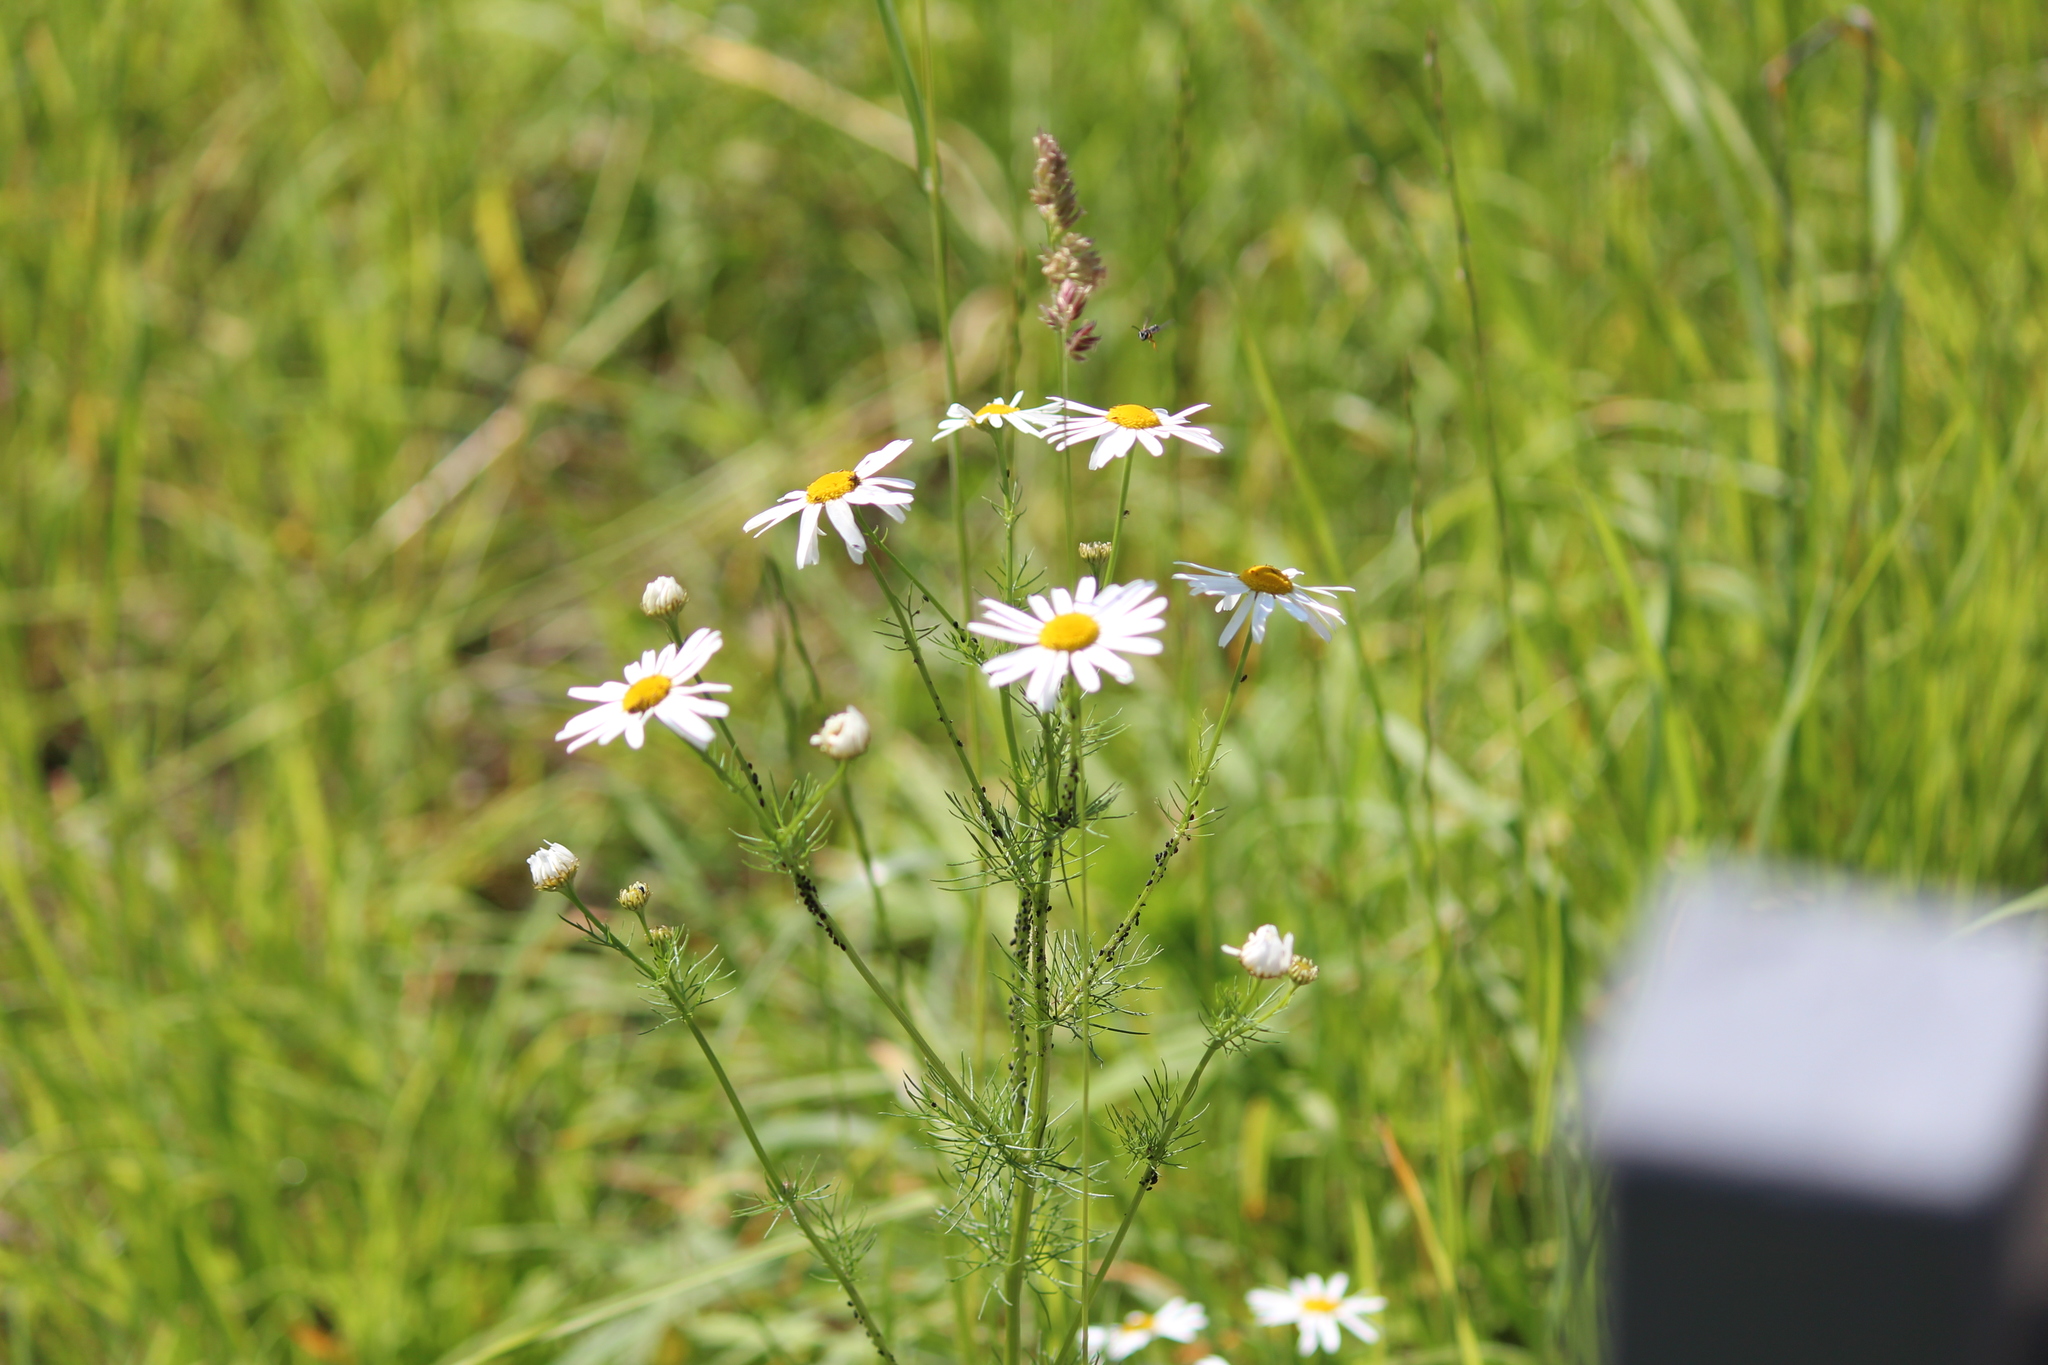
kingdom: Plantae
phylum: Tracheophyta
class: Magnoliopsida
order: Asterales
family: Asteraceae
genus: Tripleurospermum
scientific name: Tripleurospermum inodorum
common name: Scentless mayweed
